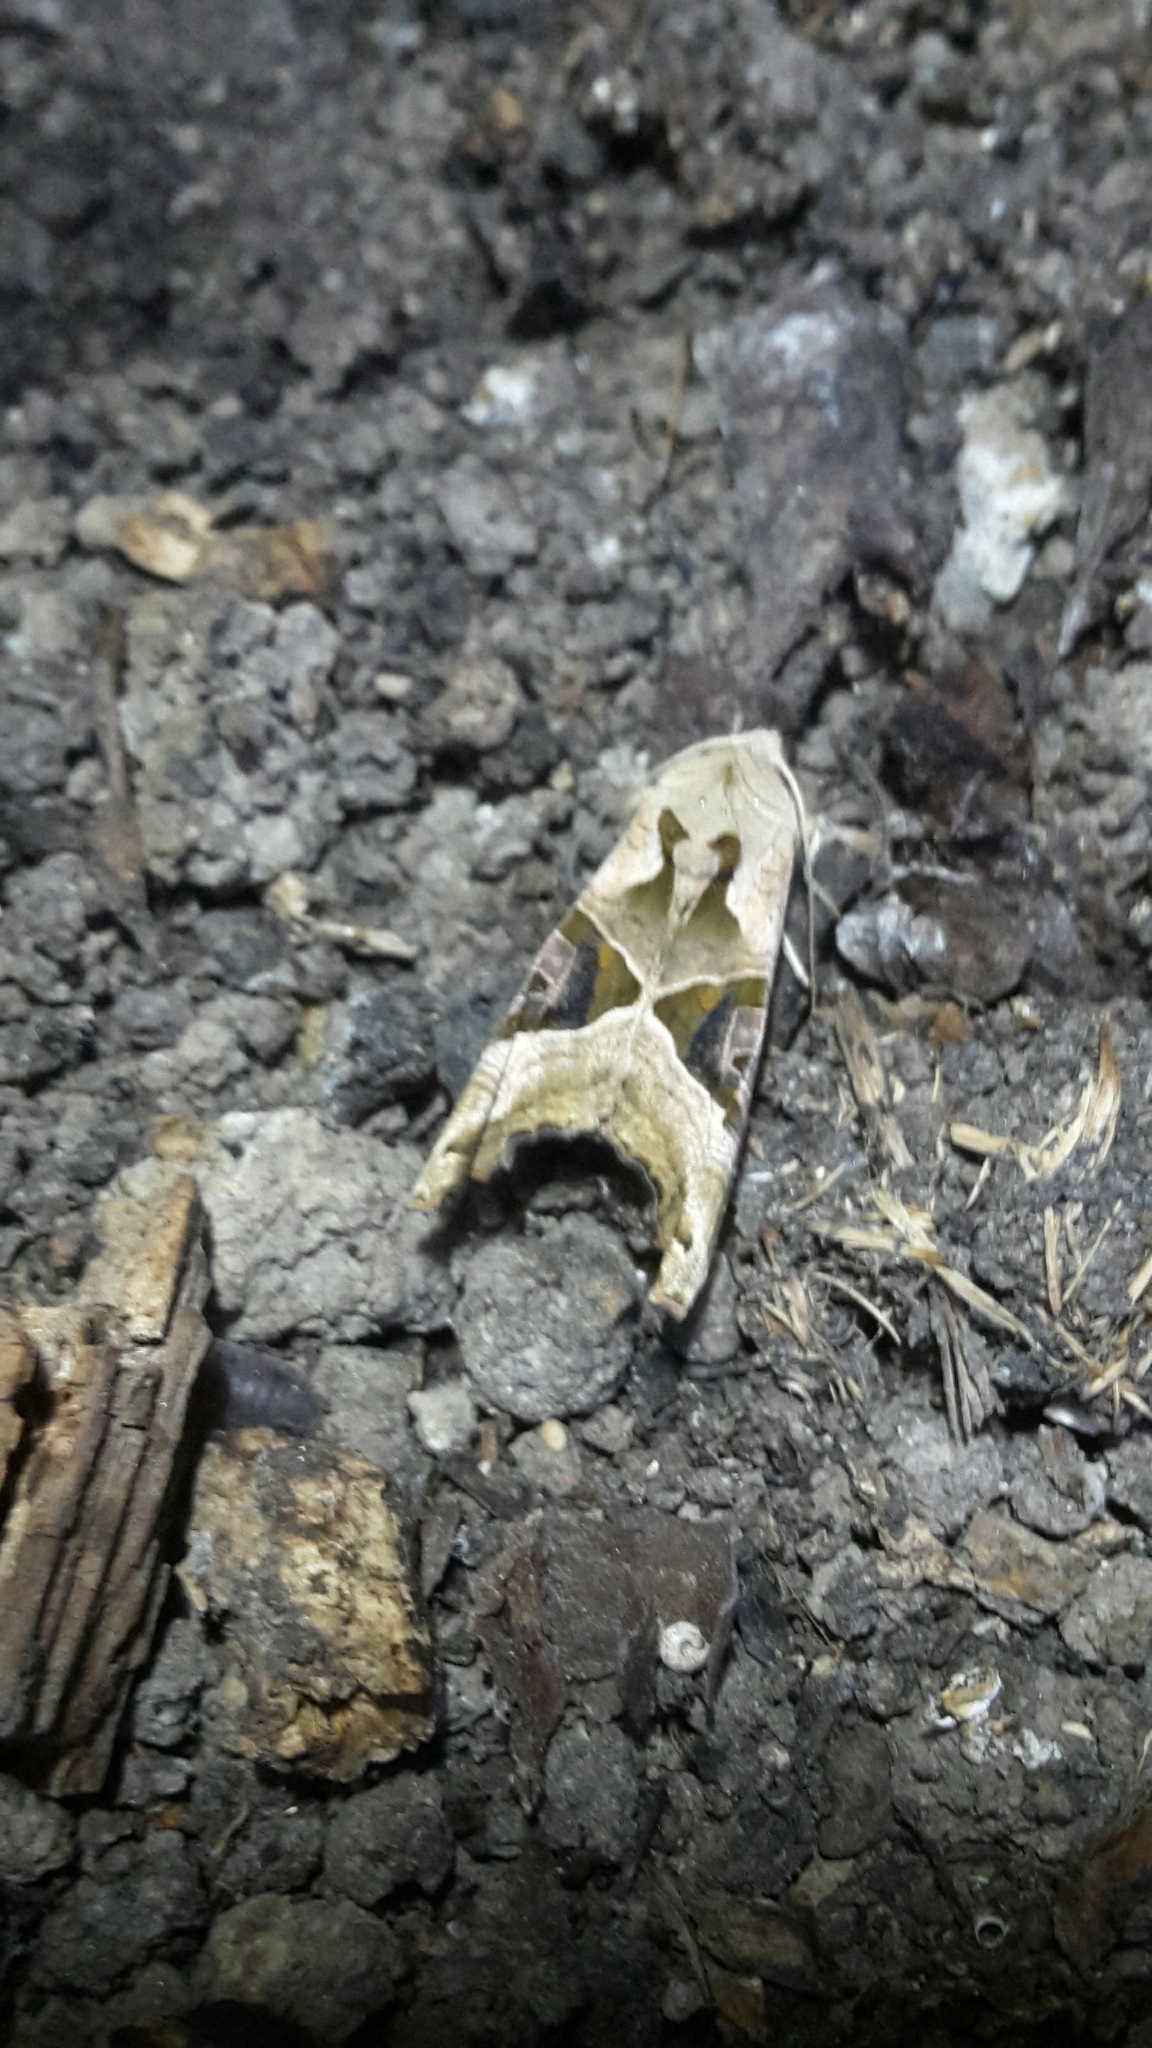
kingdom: Animalia
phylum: Arthropoda
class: Insecta
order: Lepidoptera
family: Noctuidae
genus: Phlogophora
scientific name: Phlogophora meticulosa
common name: Angle shades
